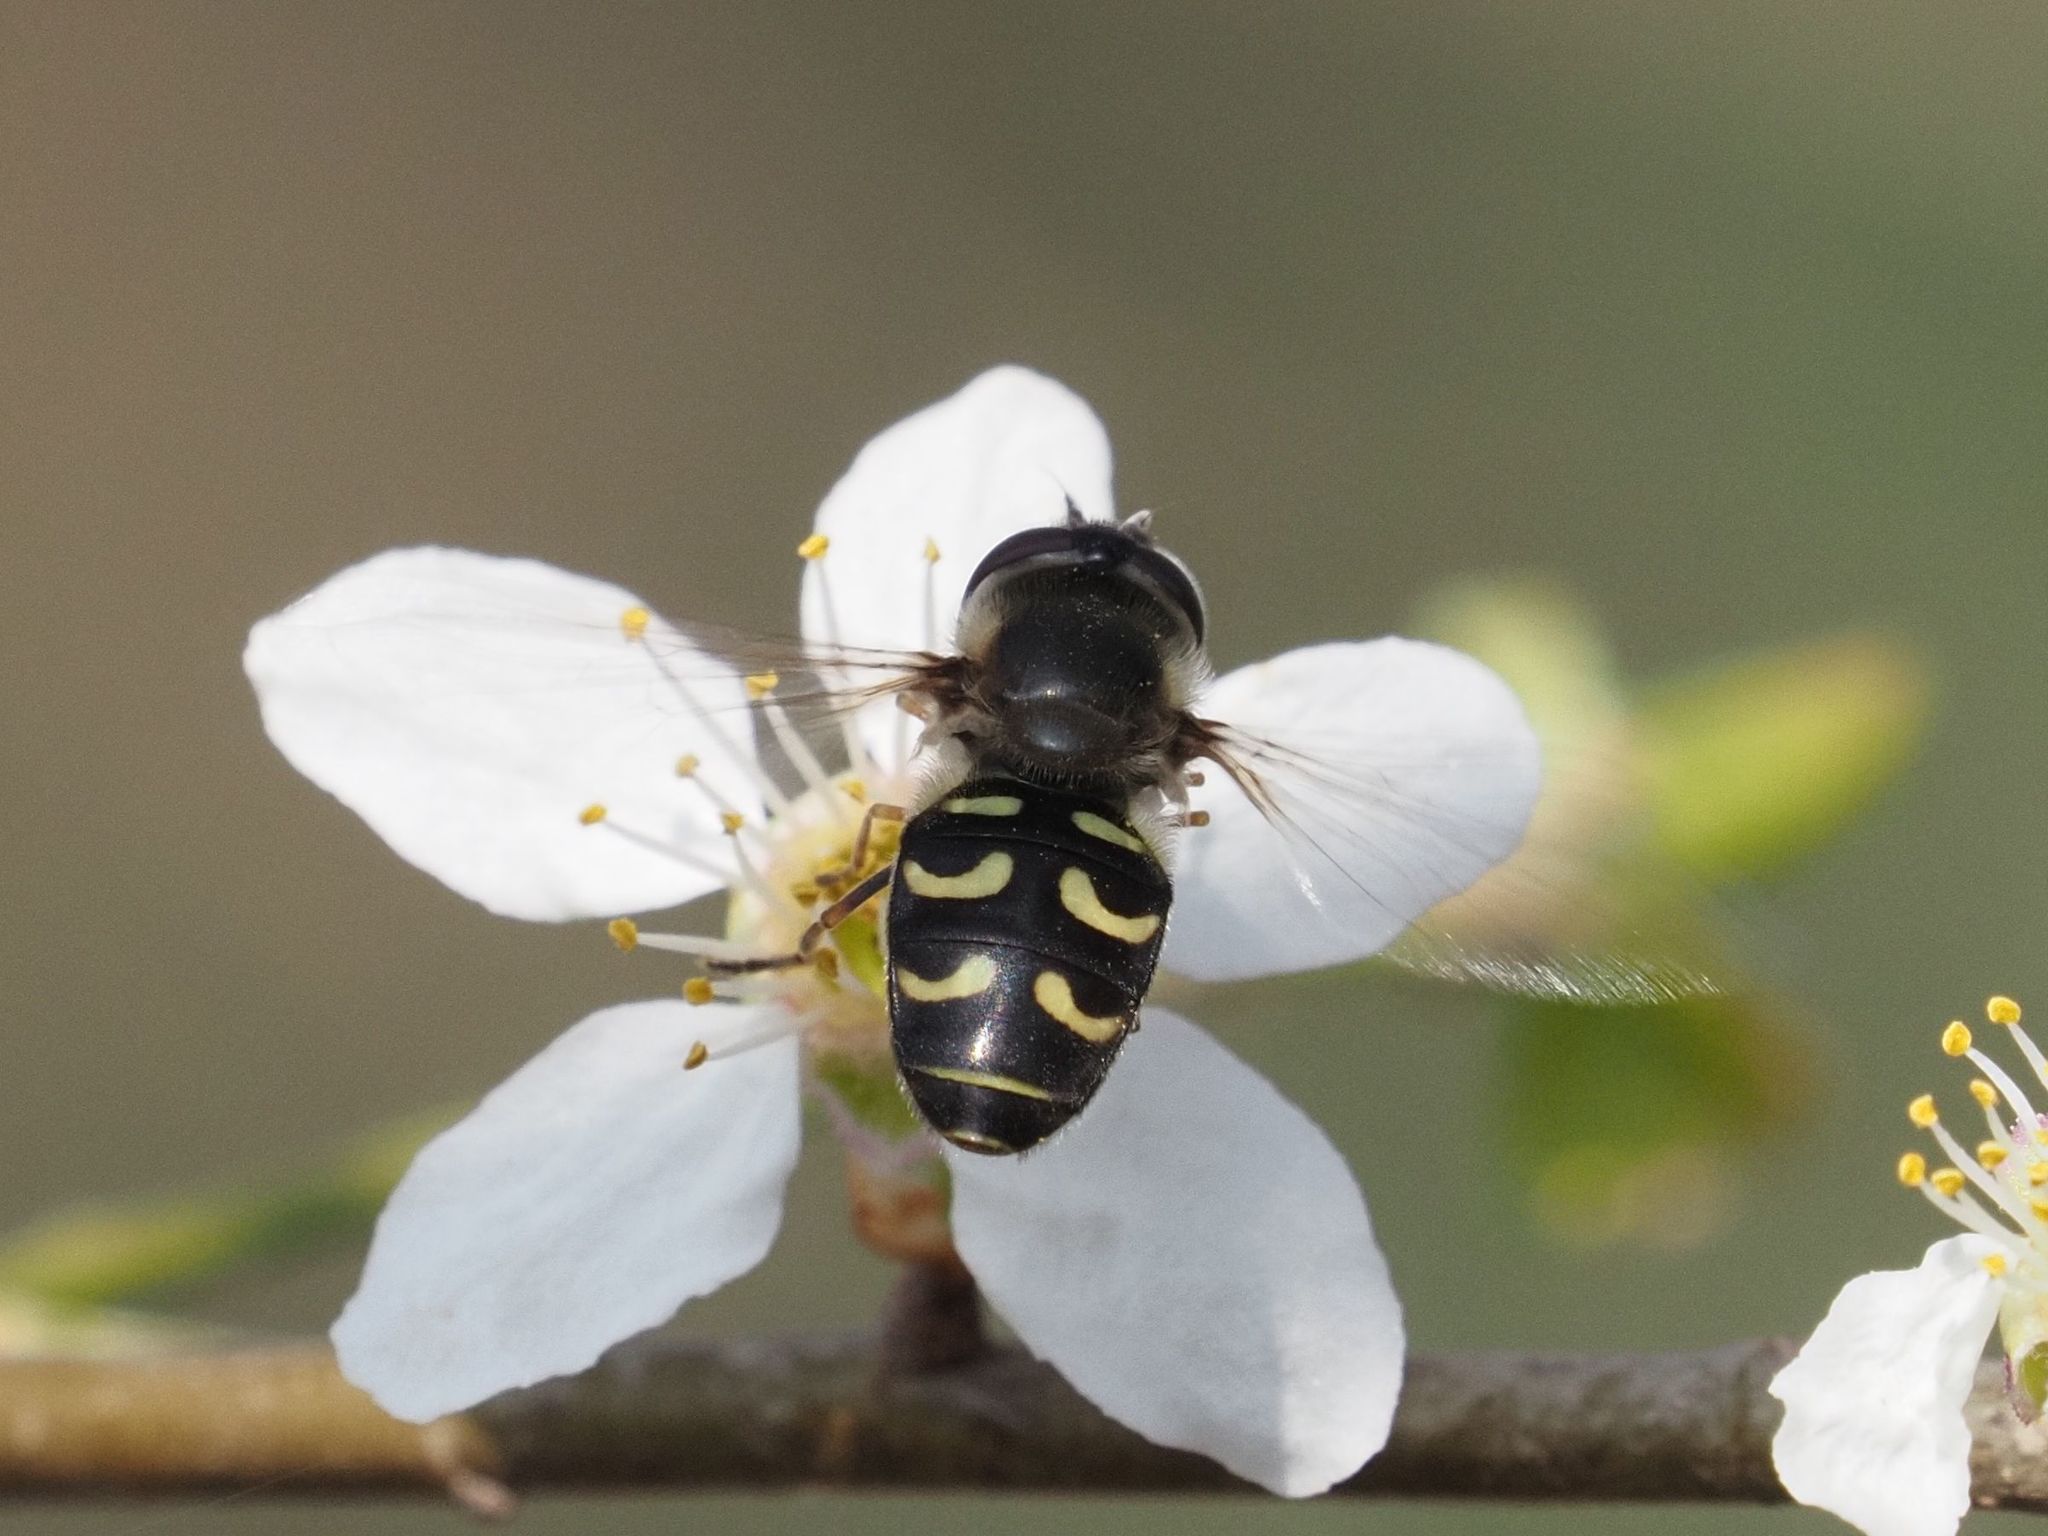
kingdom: Animalia
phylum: Arthropoda
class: Insecta
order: Diptera
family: Syrphidae
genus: Scaeva
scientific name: Scaeva selenitica
